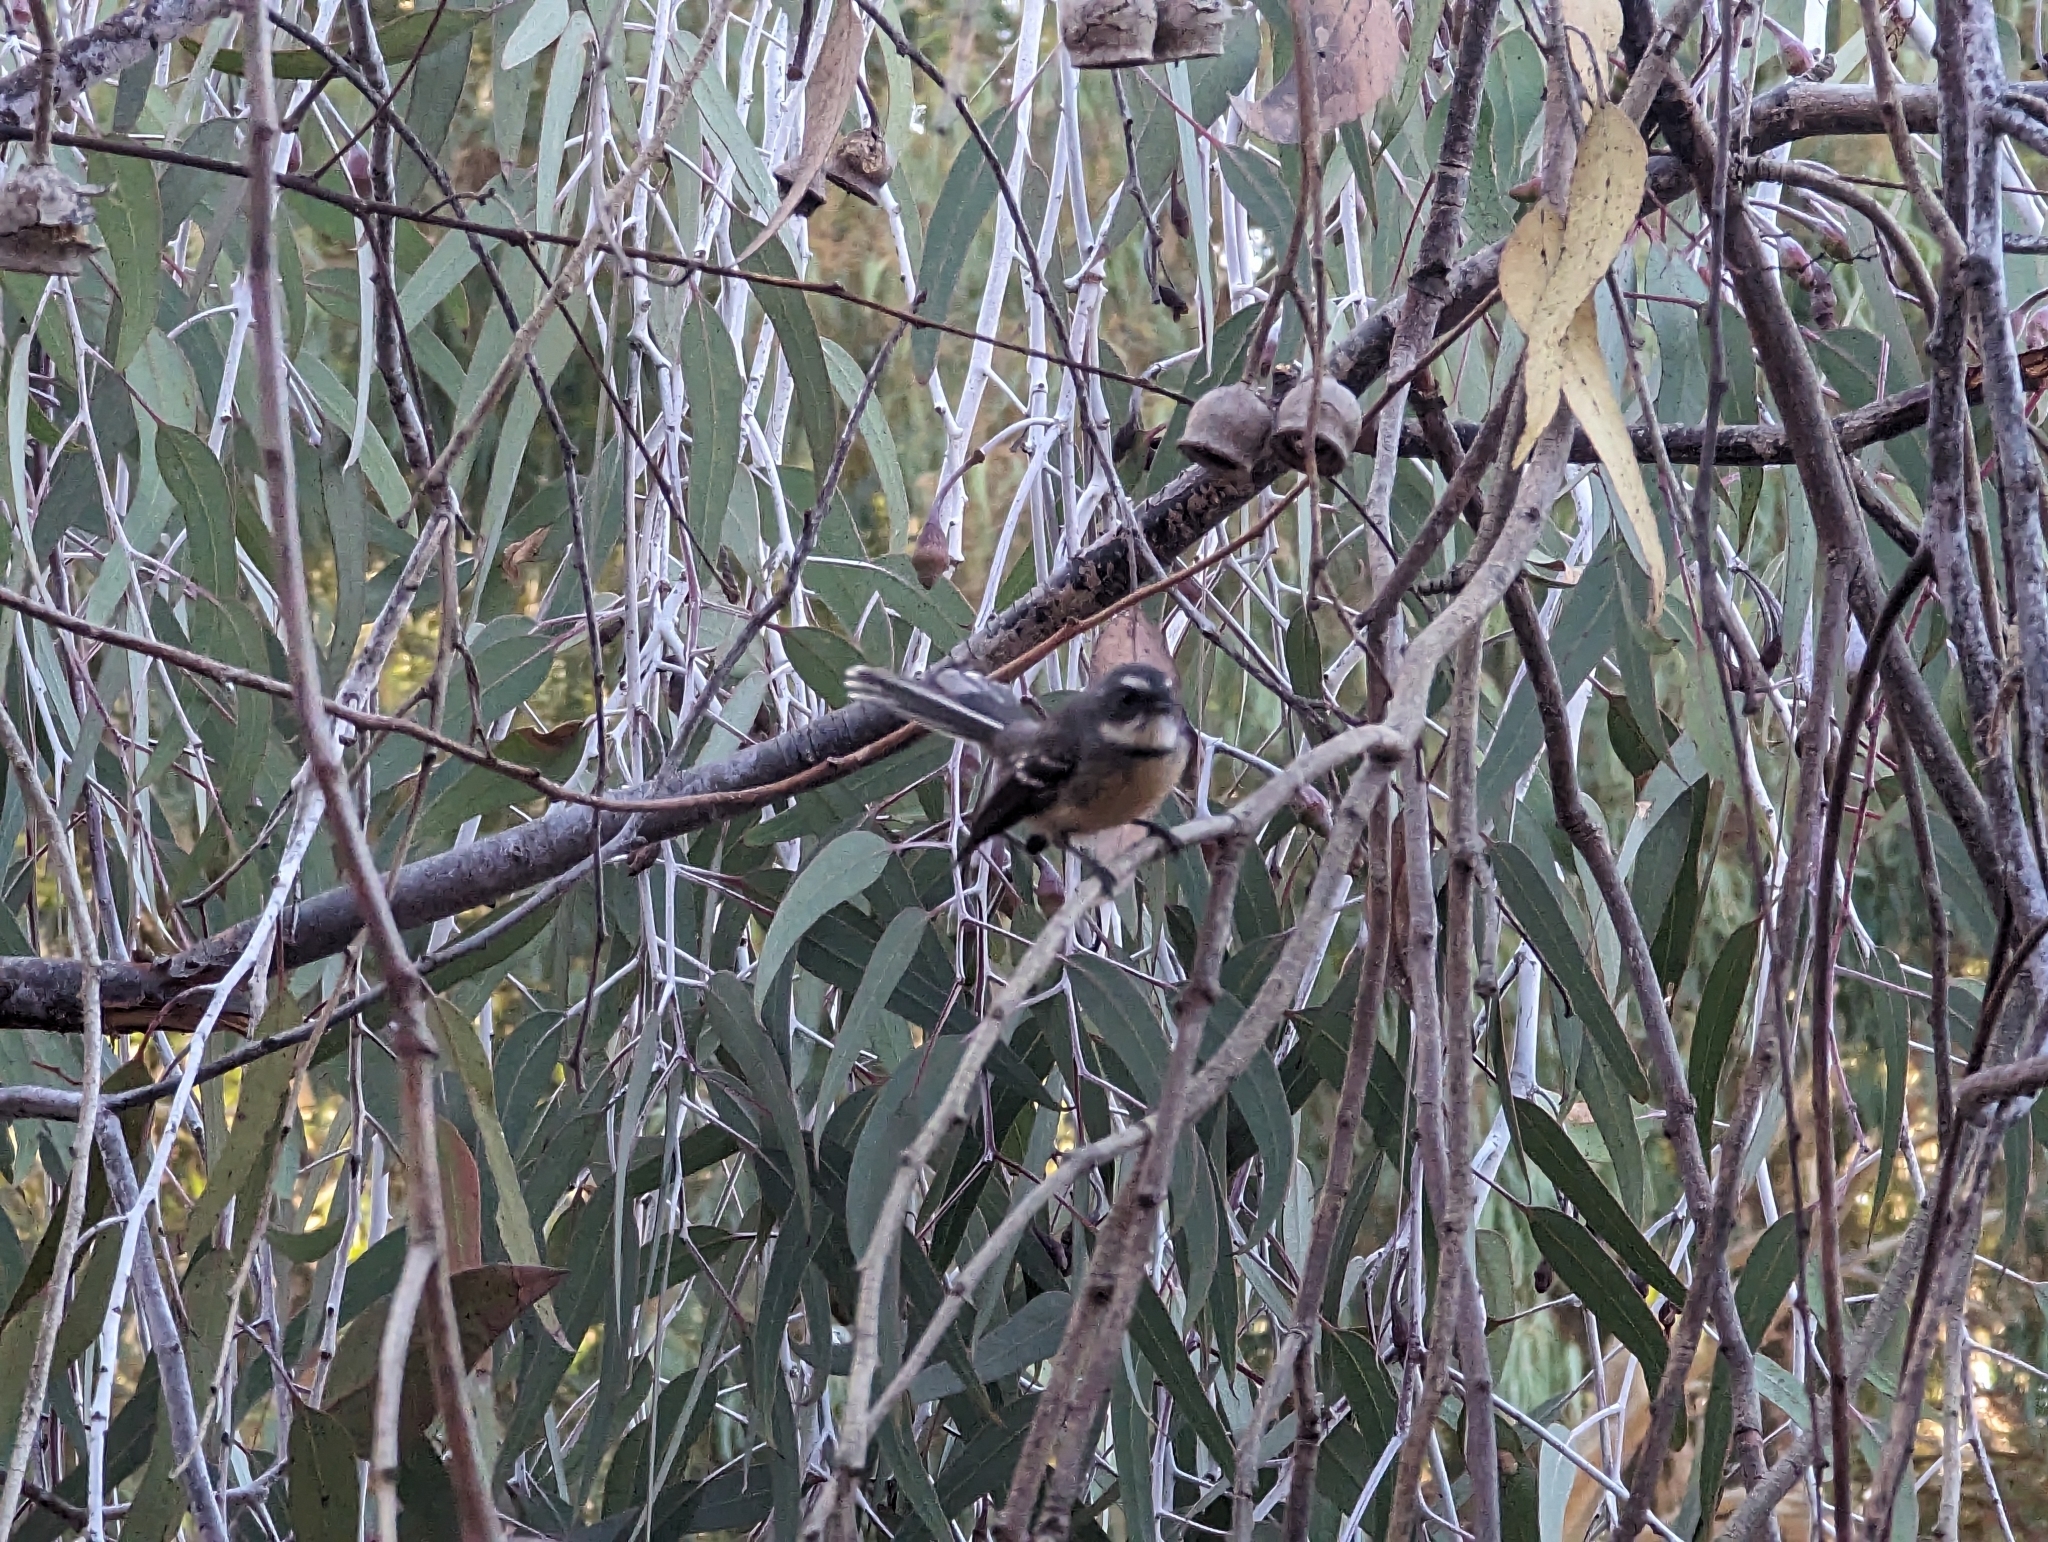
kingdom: Animalia
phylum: Chordata
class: Aves
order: Passeriformes
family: Rhipiduridae
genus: Rhipidura
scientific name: Rhipidura albiscapa
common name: Grey fantail
